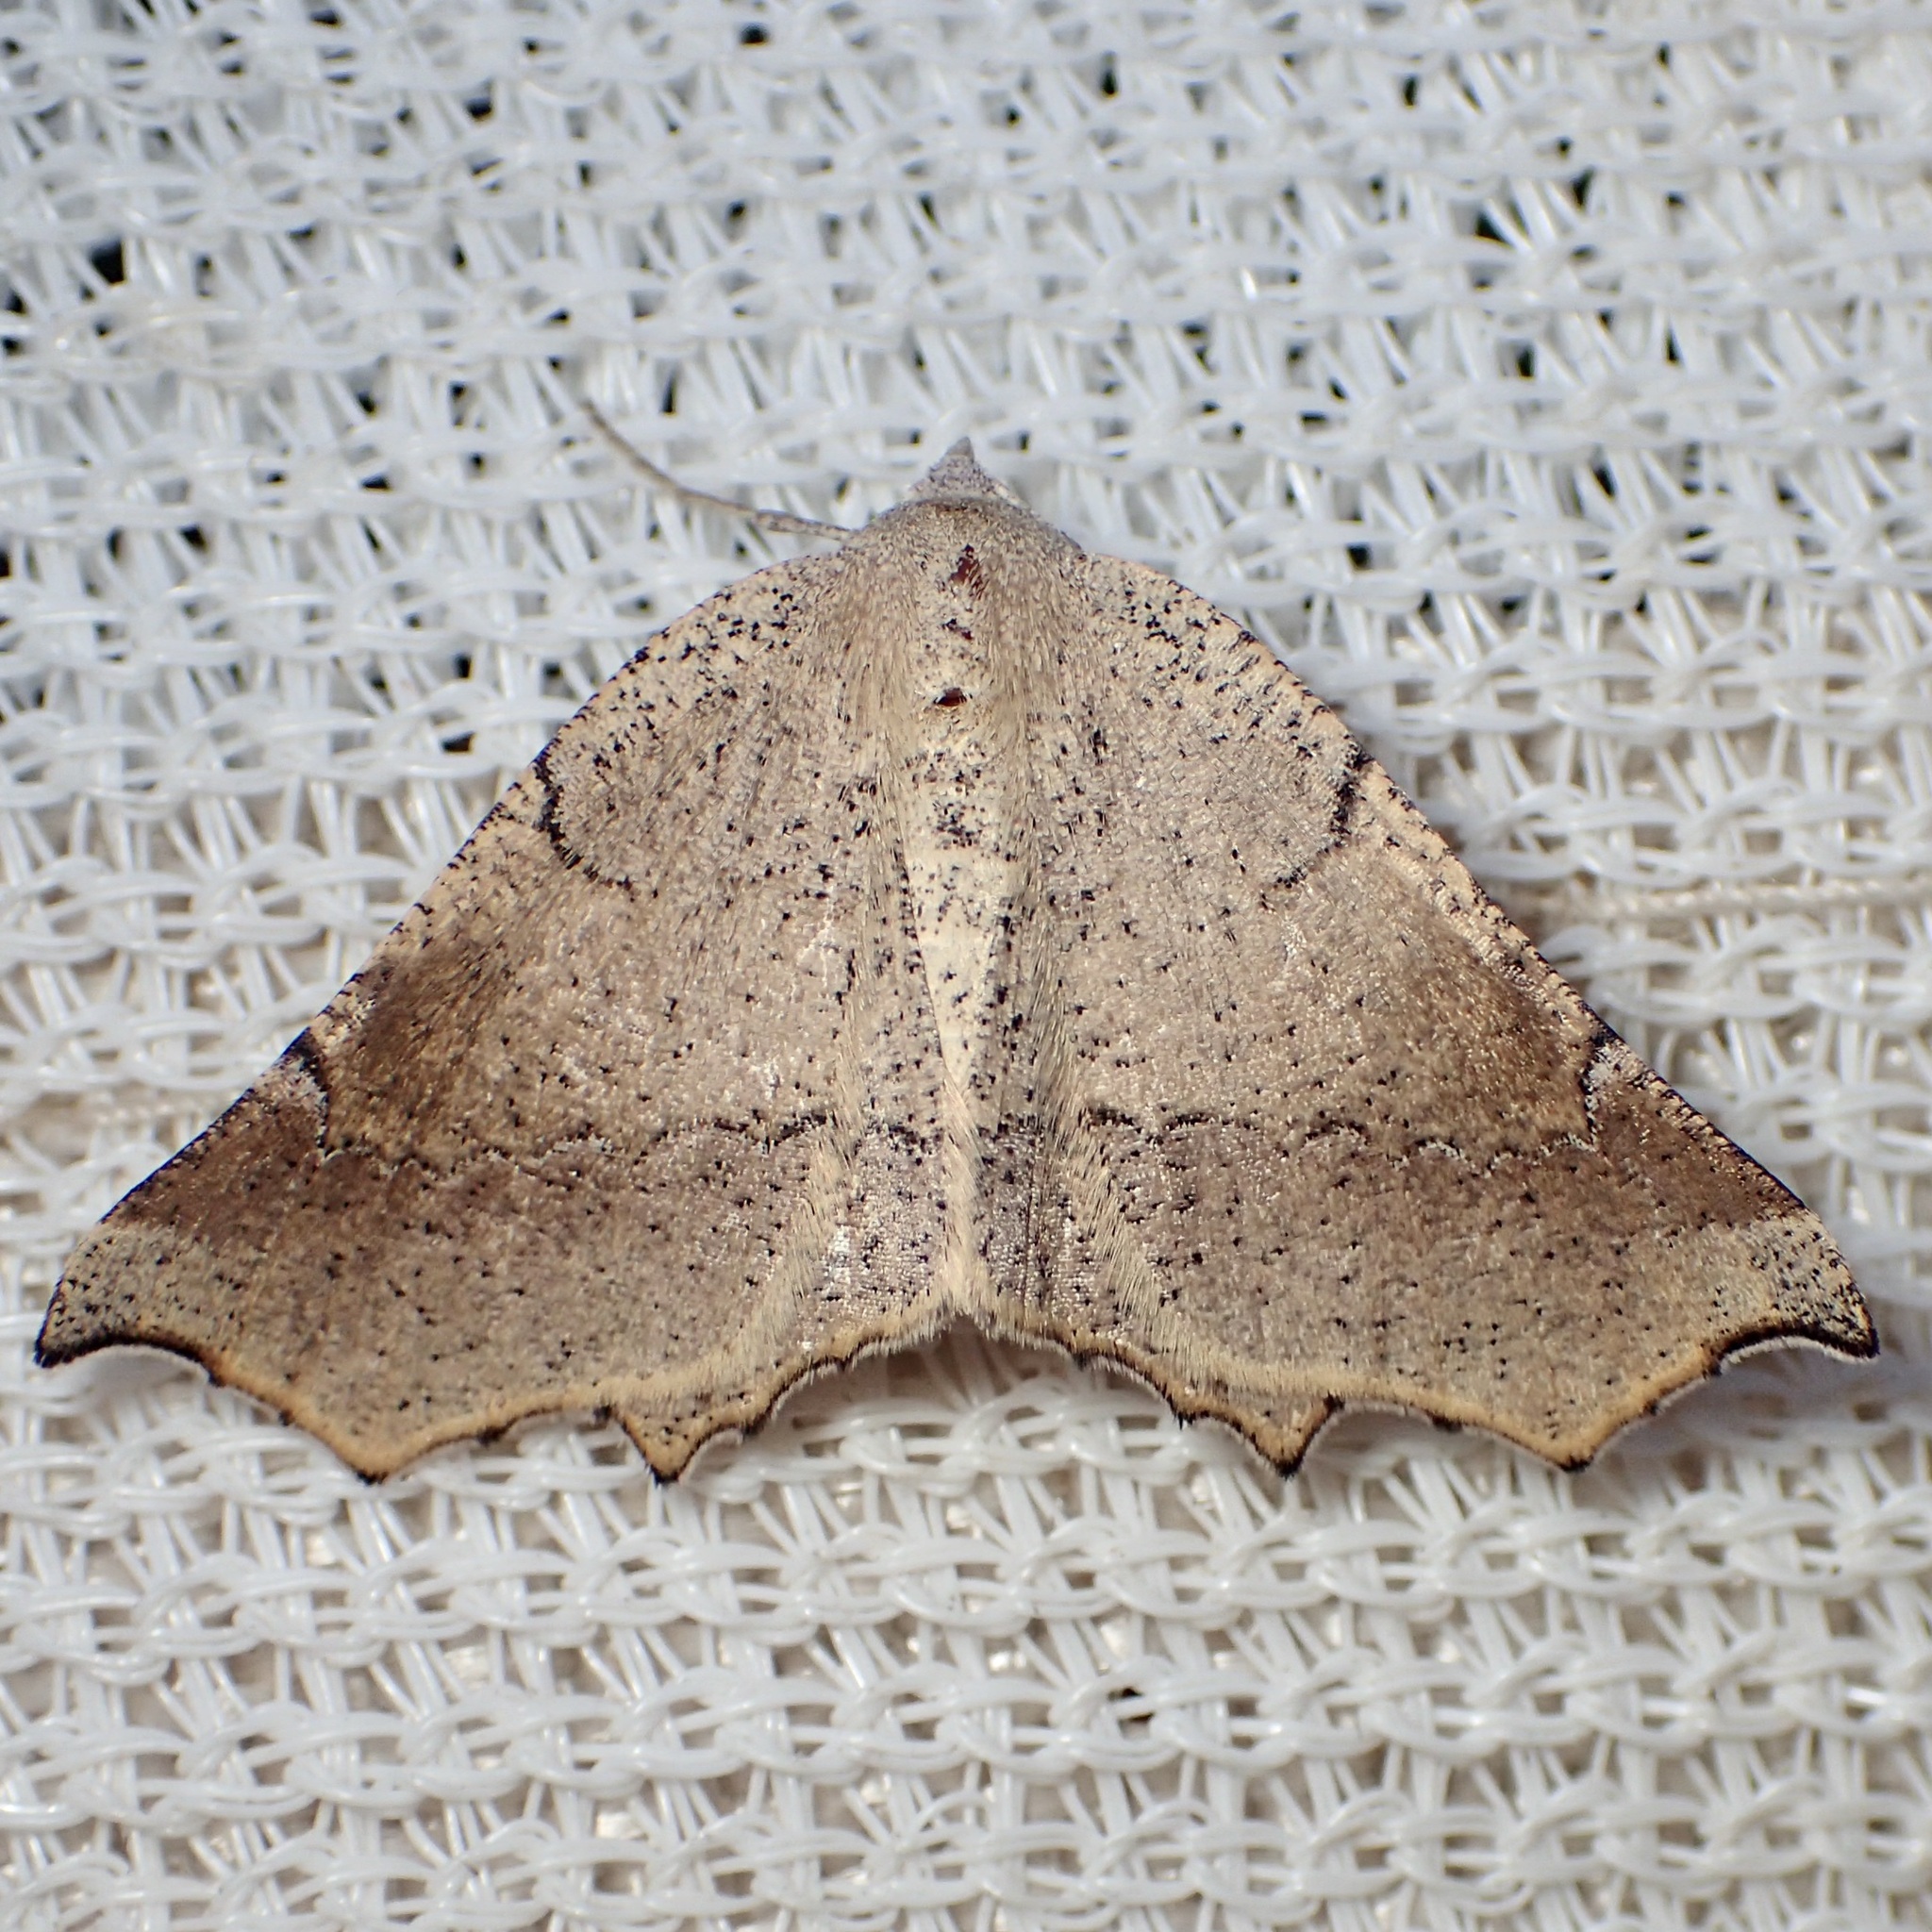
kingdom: Animalia
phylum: Arthropoda
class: Insecta
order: Lepidoptera
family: Geometridae
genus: Eriplatymetra
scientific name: Eriplatymetra grotearia
